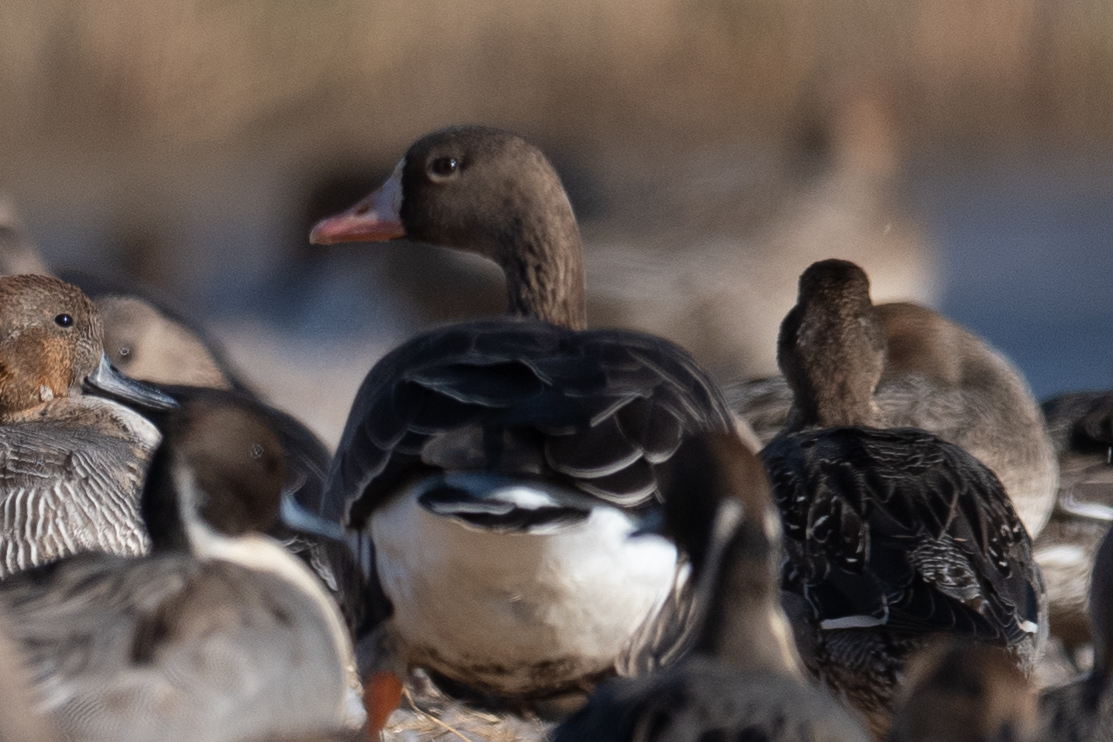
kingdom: Animalia
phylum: Chordata
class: Aves
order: Anseriformes
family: Anatidae
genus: Anser
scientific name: Anser albifrons
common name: Greater white-fronted goose
